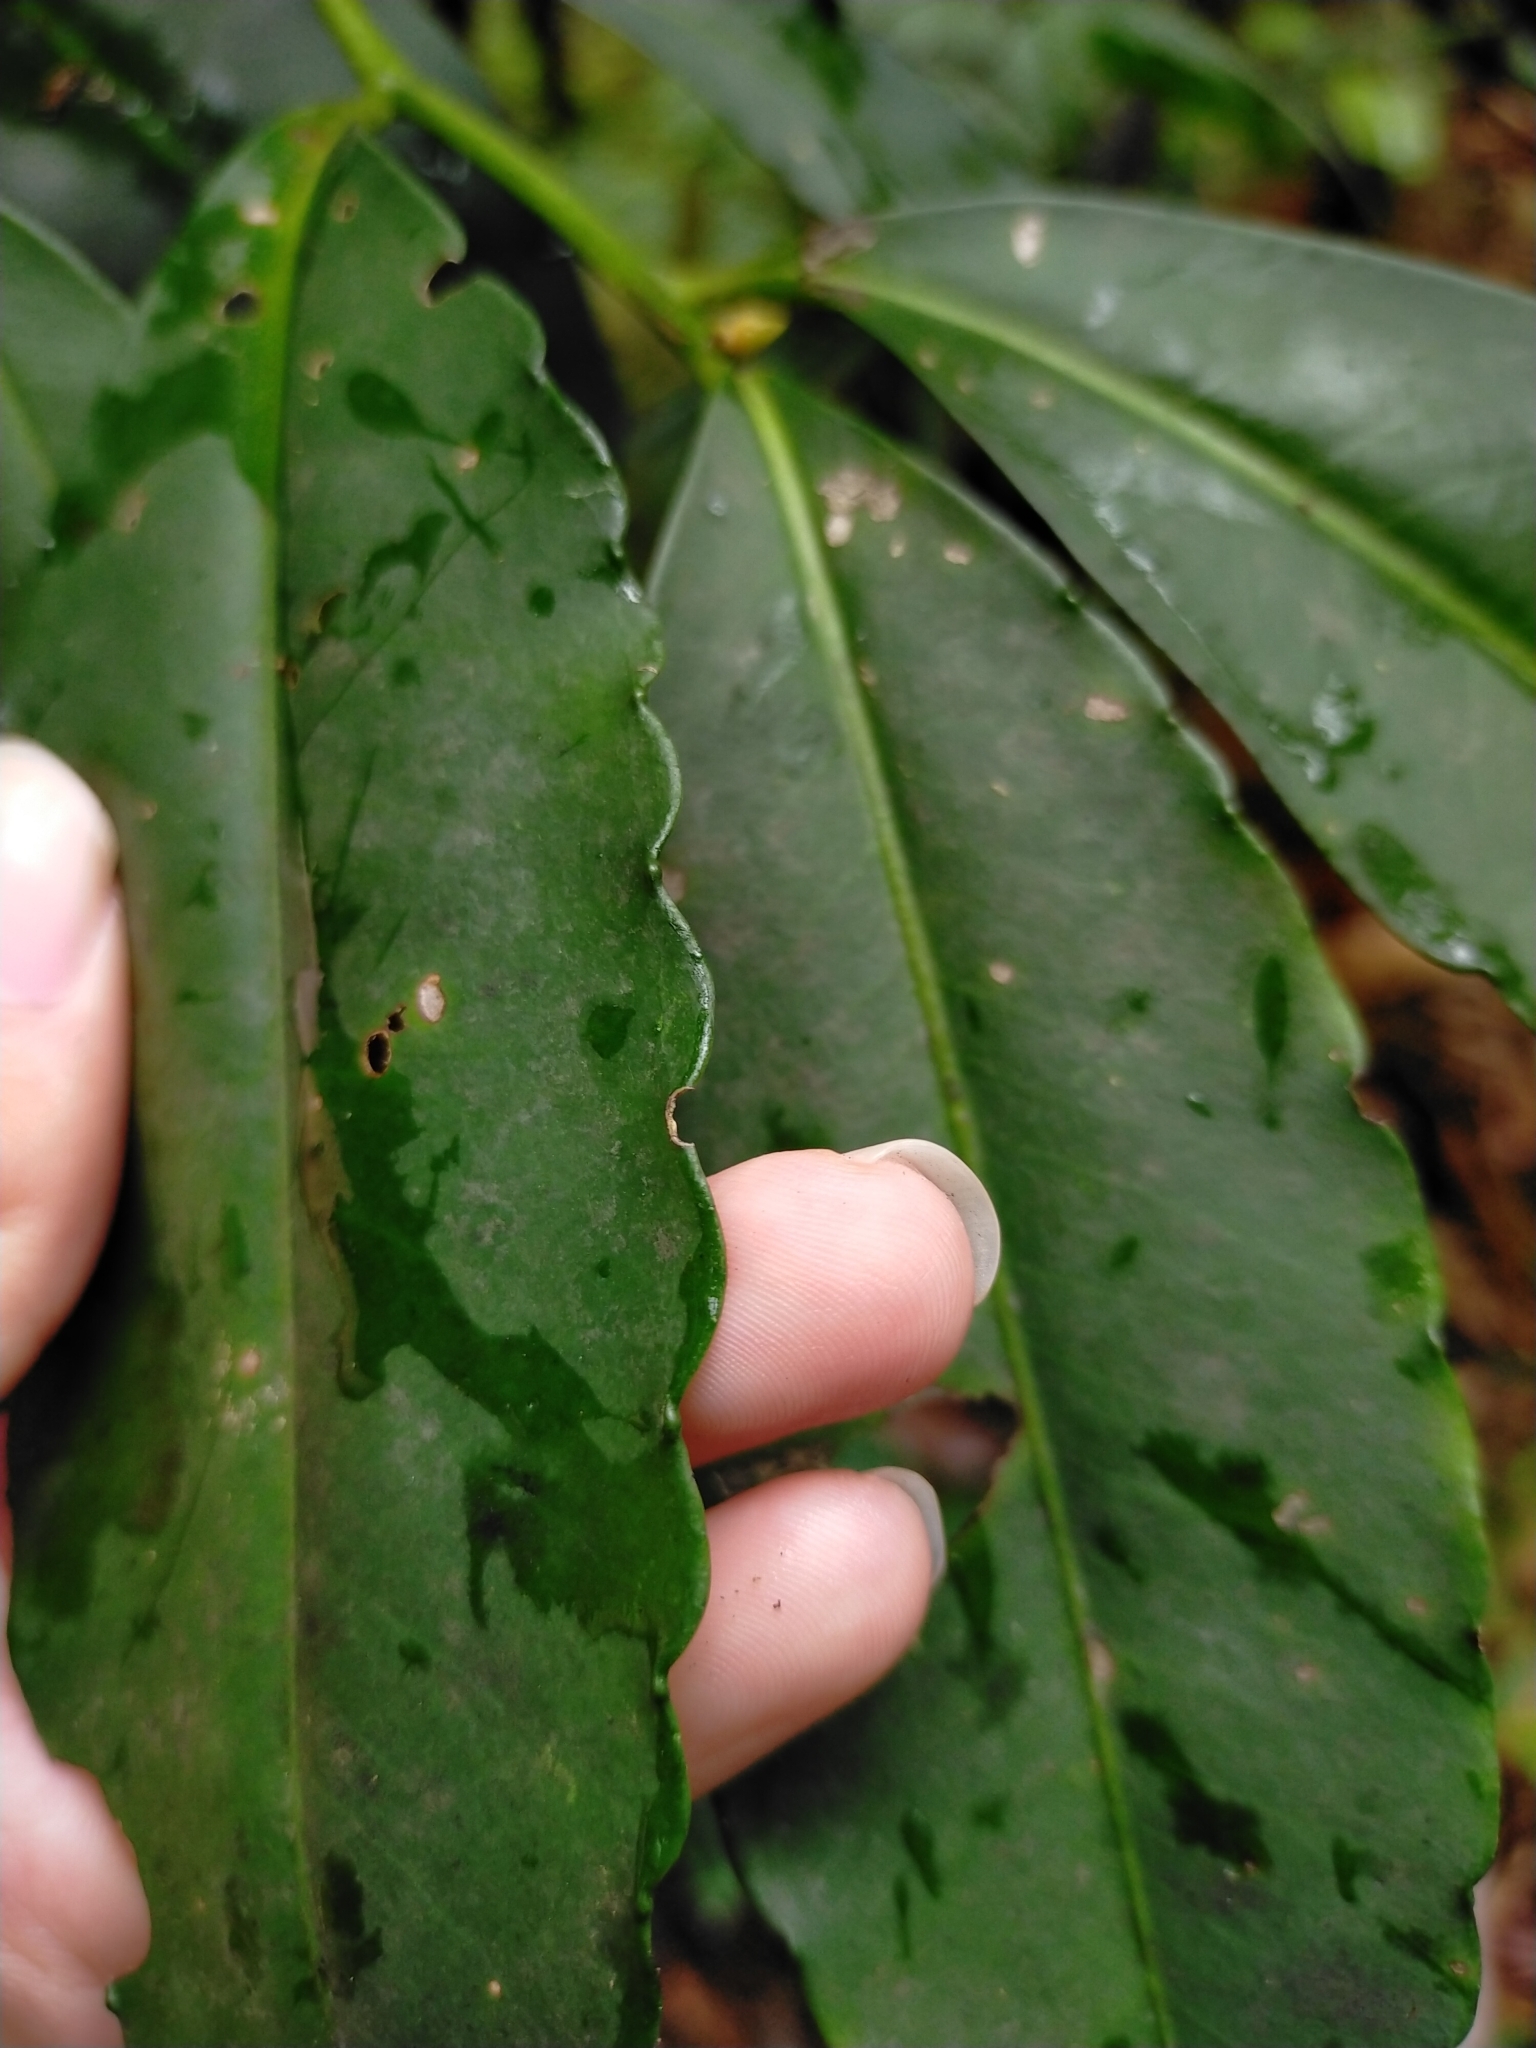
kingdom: Plantae
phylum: Tracheophyta
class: Magnoliopsida
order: Ericales
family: Primulaceae
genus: Ardisia
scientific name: Ardisia polysticta
